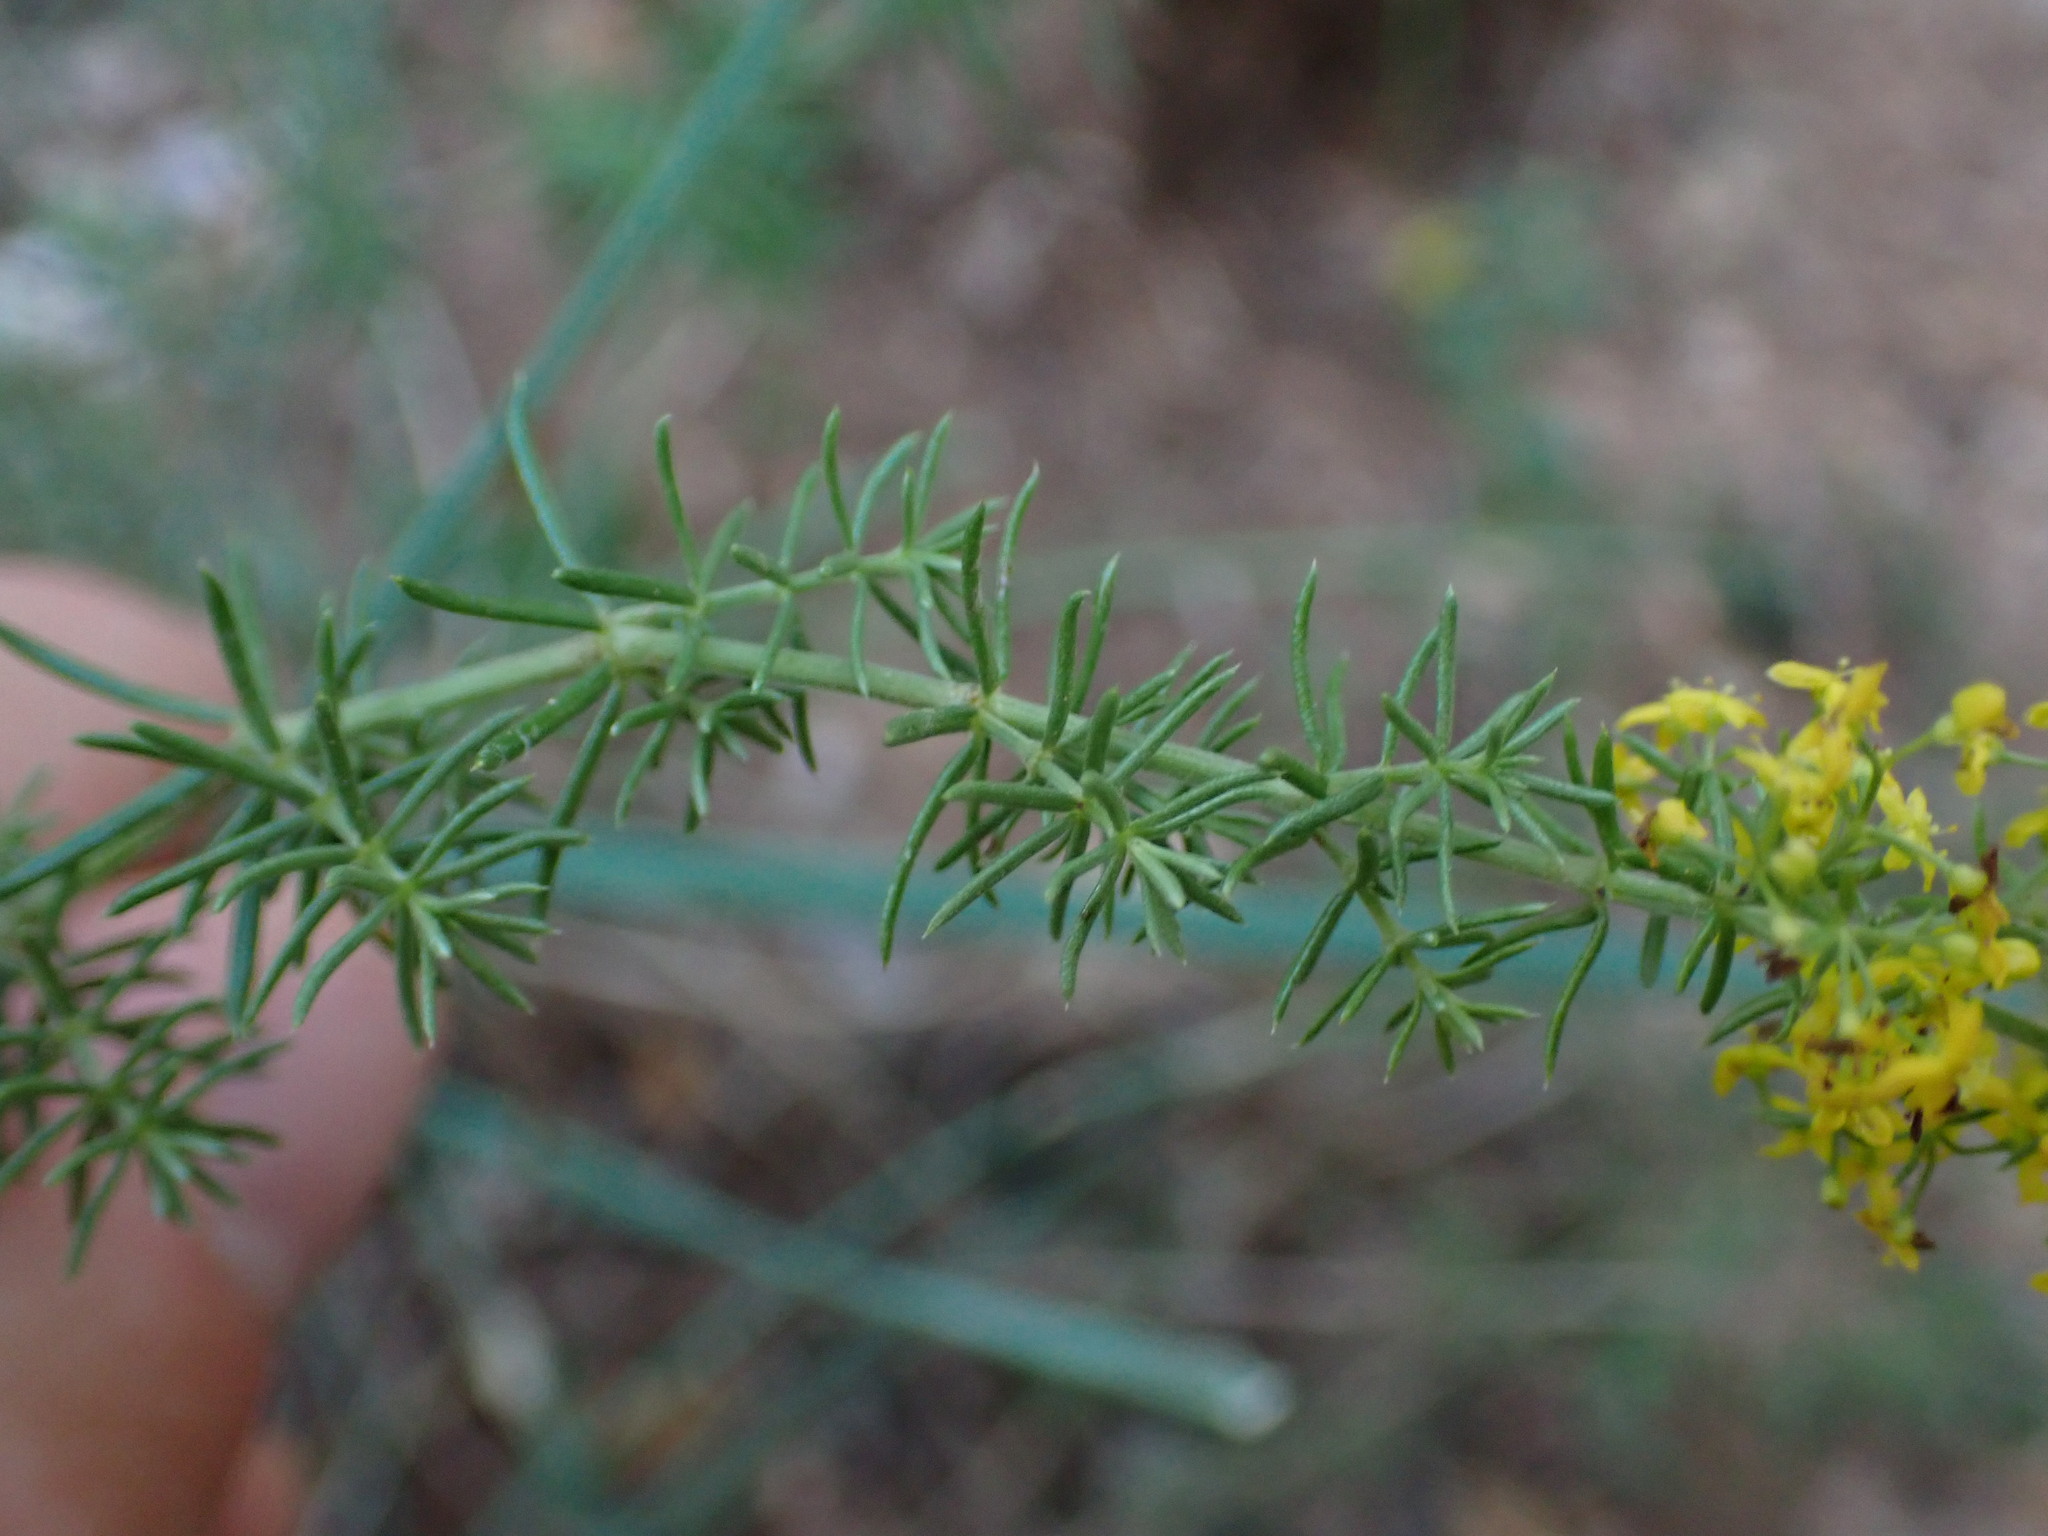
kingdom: Plantae
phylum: Tracheophyta
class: Magnoliopsida
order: Gentianales
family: Rubiaceae
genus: Galium
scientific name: Galium verum
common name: Lady's bedstraw
